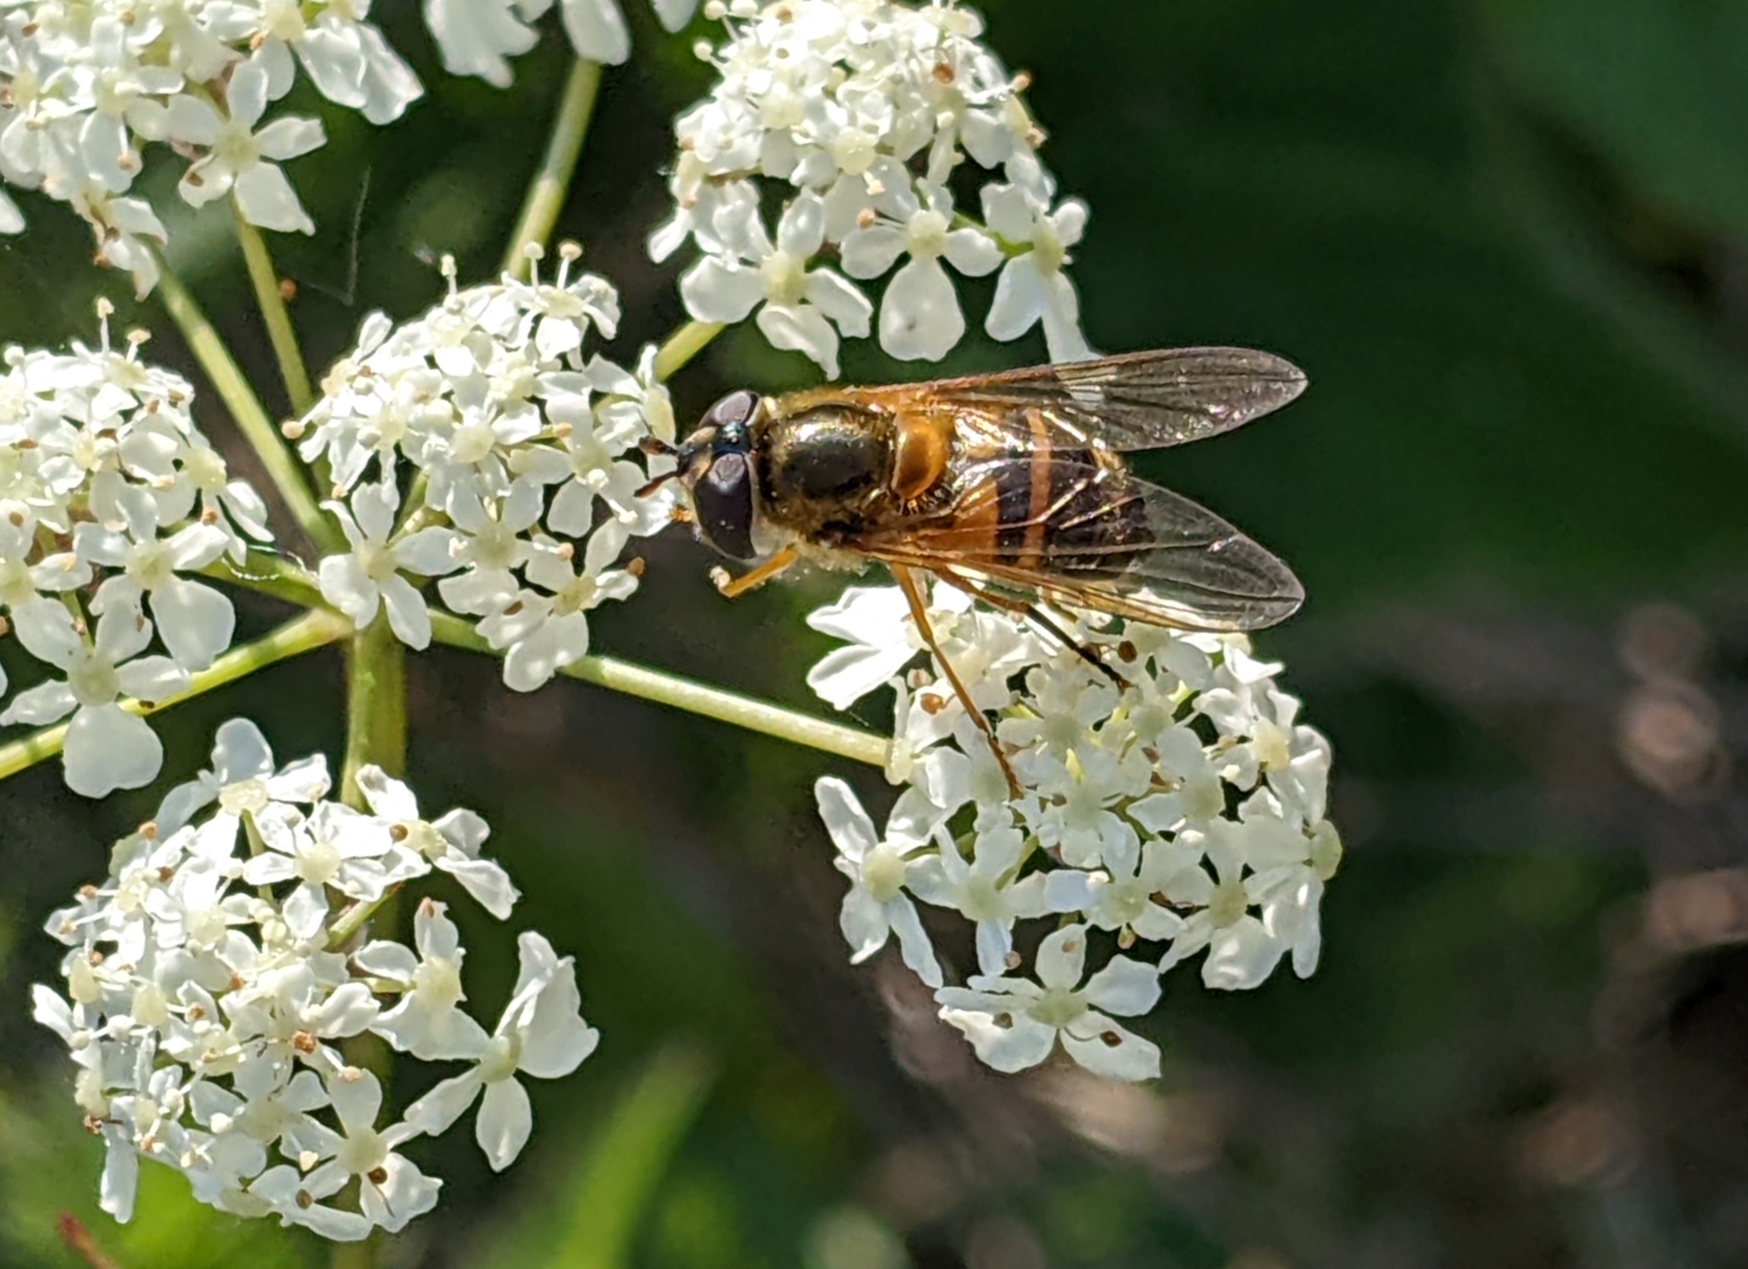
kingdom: Animalia
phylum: Arthropoda
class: Insecta
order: Diptera
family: Syrphidae
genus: Epistrophe
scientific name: Epistrophe eligans
